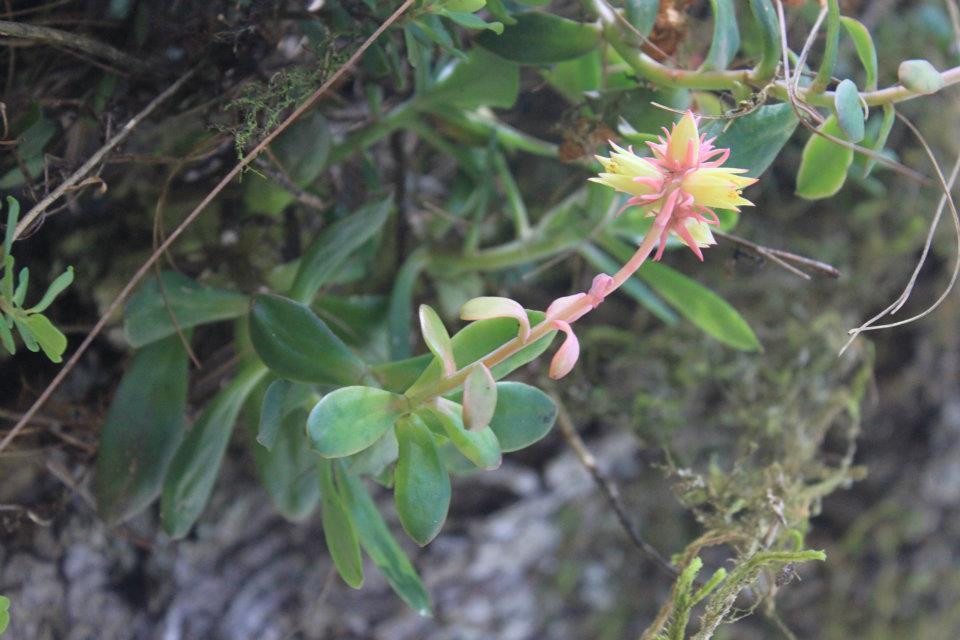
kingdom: Plantae
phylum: Tracheophyta
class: Magnoliopsida
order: Saxifragales
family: Crassulaceae
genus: Echeveria
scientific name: Echeveria rosea
